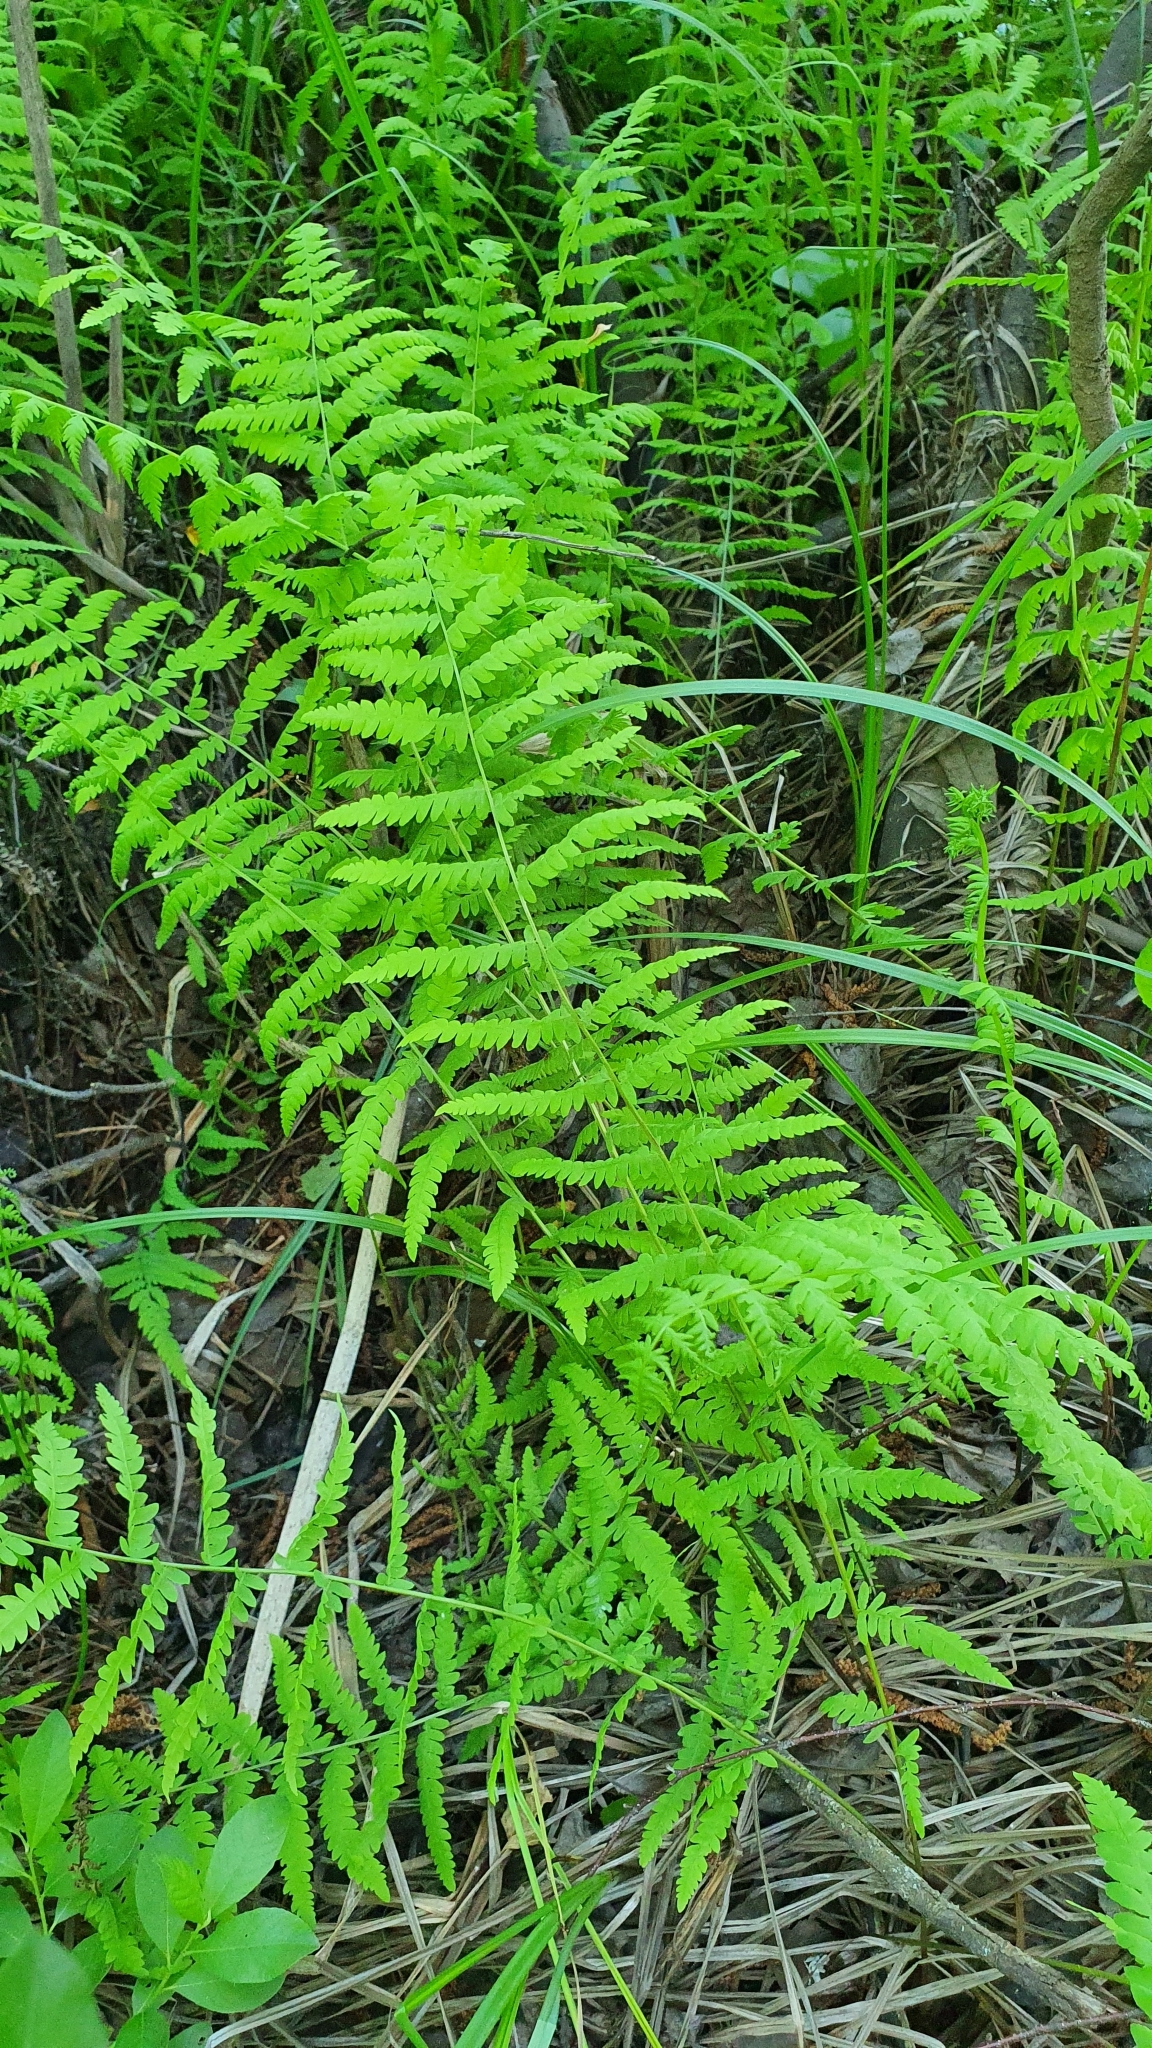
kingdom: Plantae
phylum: Tracheophyta
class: Polypodiopsida
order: Polypodiales
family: Thelypteridaceae
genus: Thelypteris
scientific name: Thelypteris palustris
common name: Marsh fern
